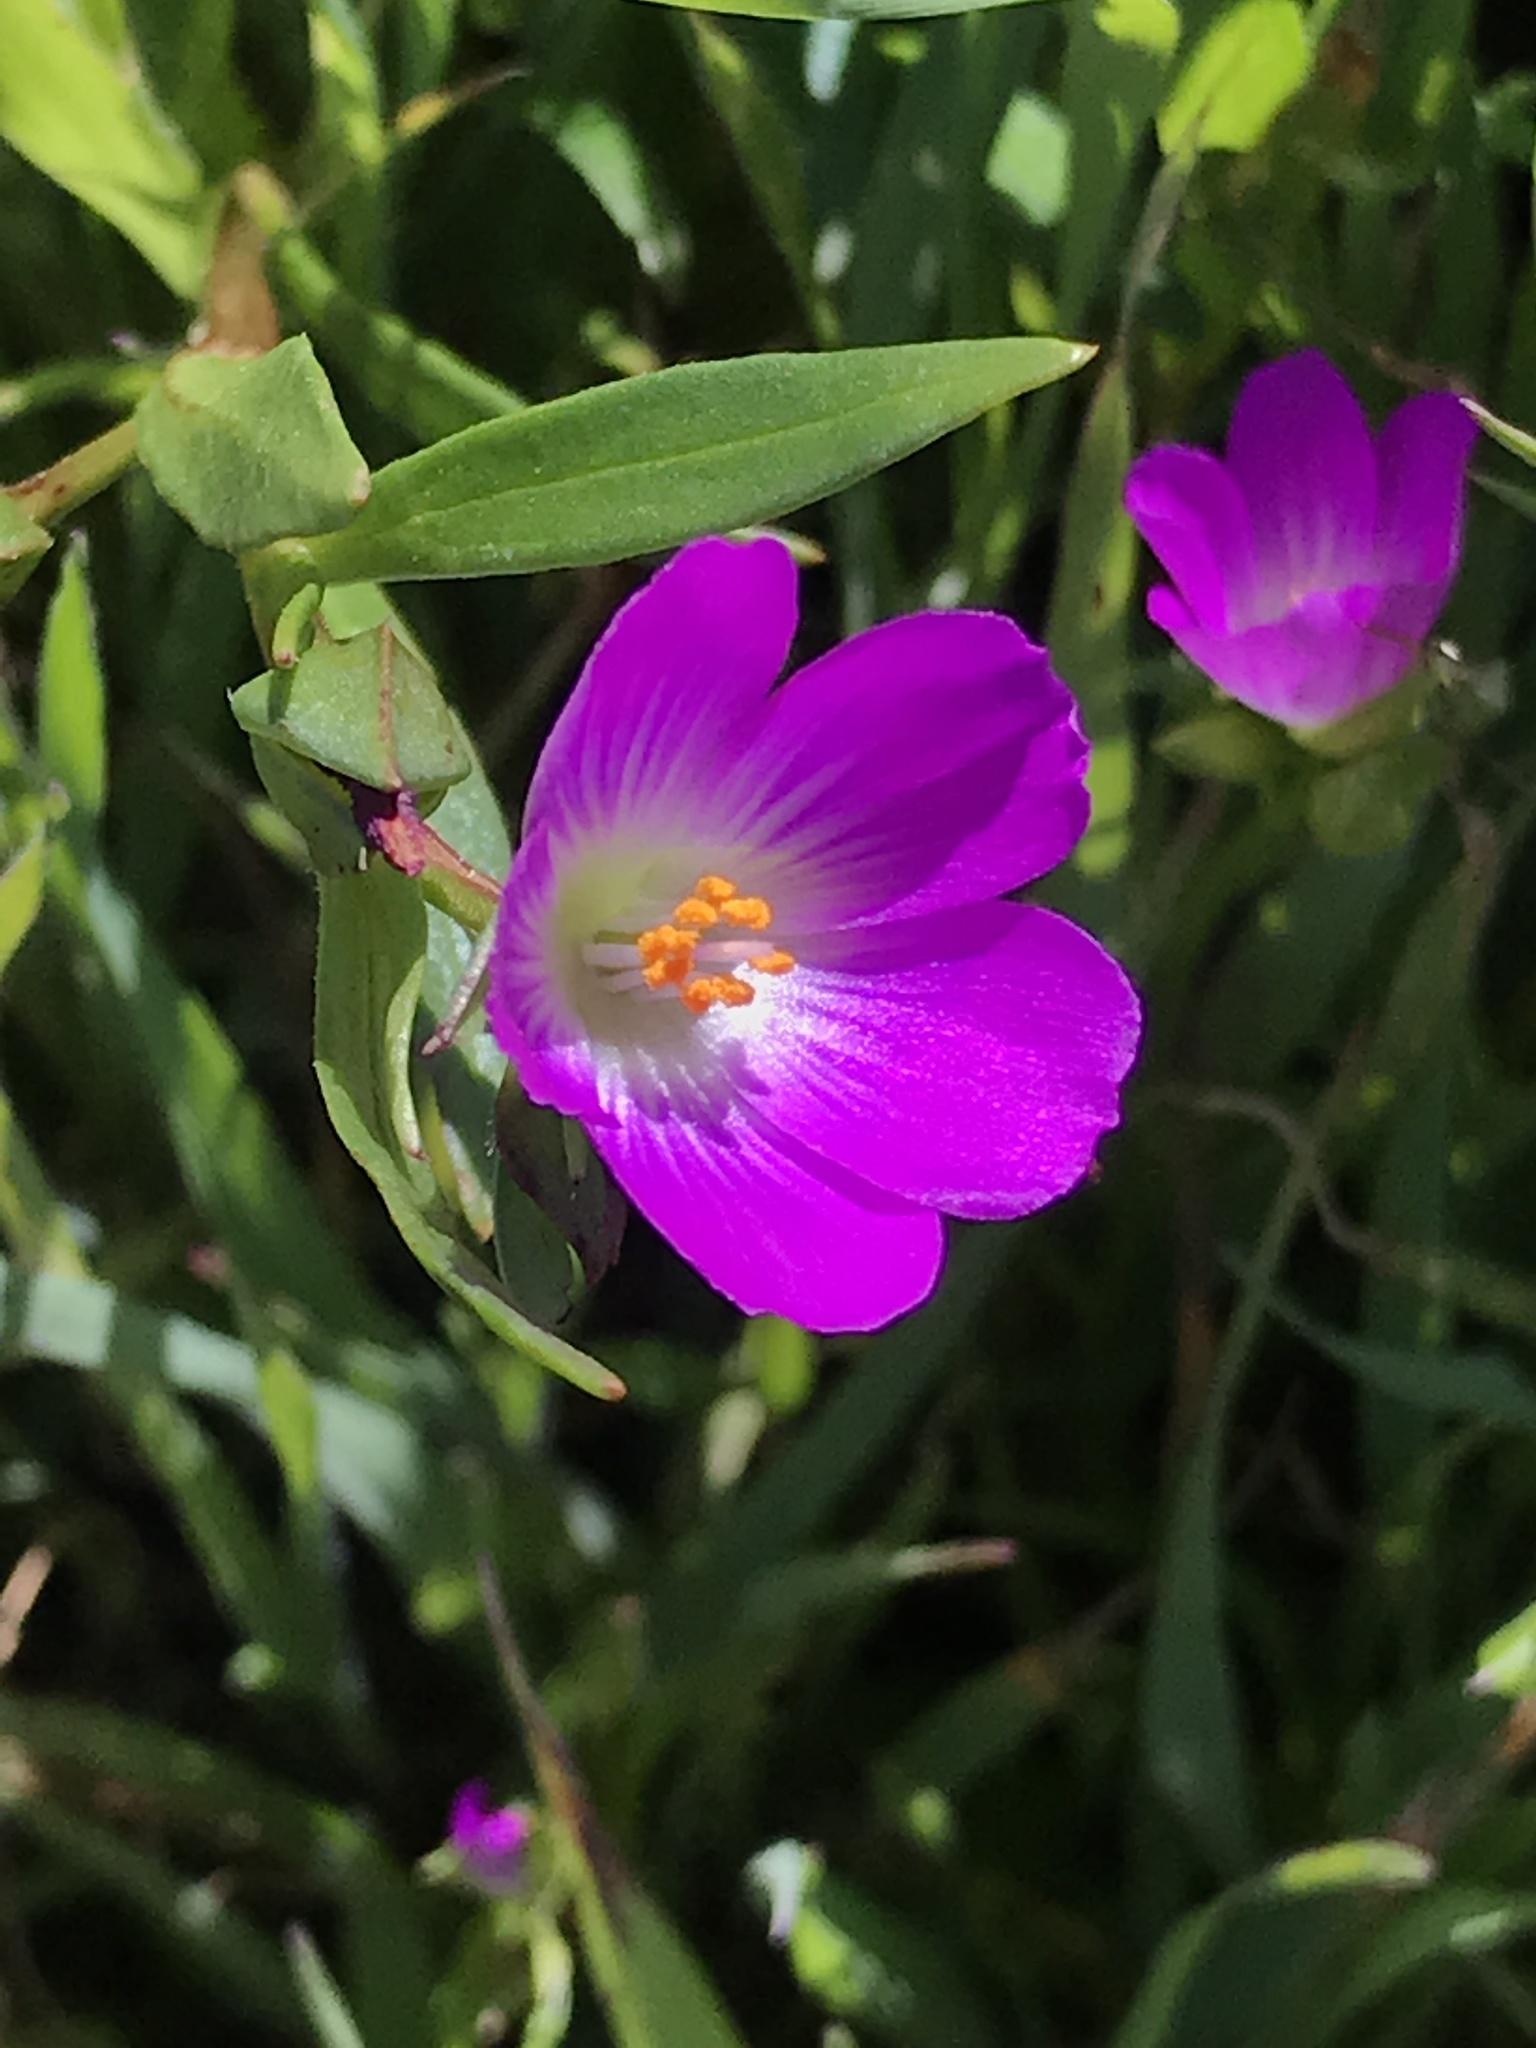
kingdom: Plantae
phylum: Tracheophyta
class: Magnoliopsida
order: Caryophyllales
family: Montiaceae
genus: Calandrinia
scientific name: Calandrinia menziesii
